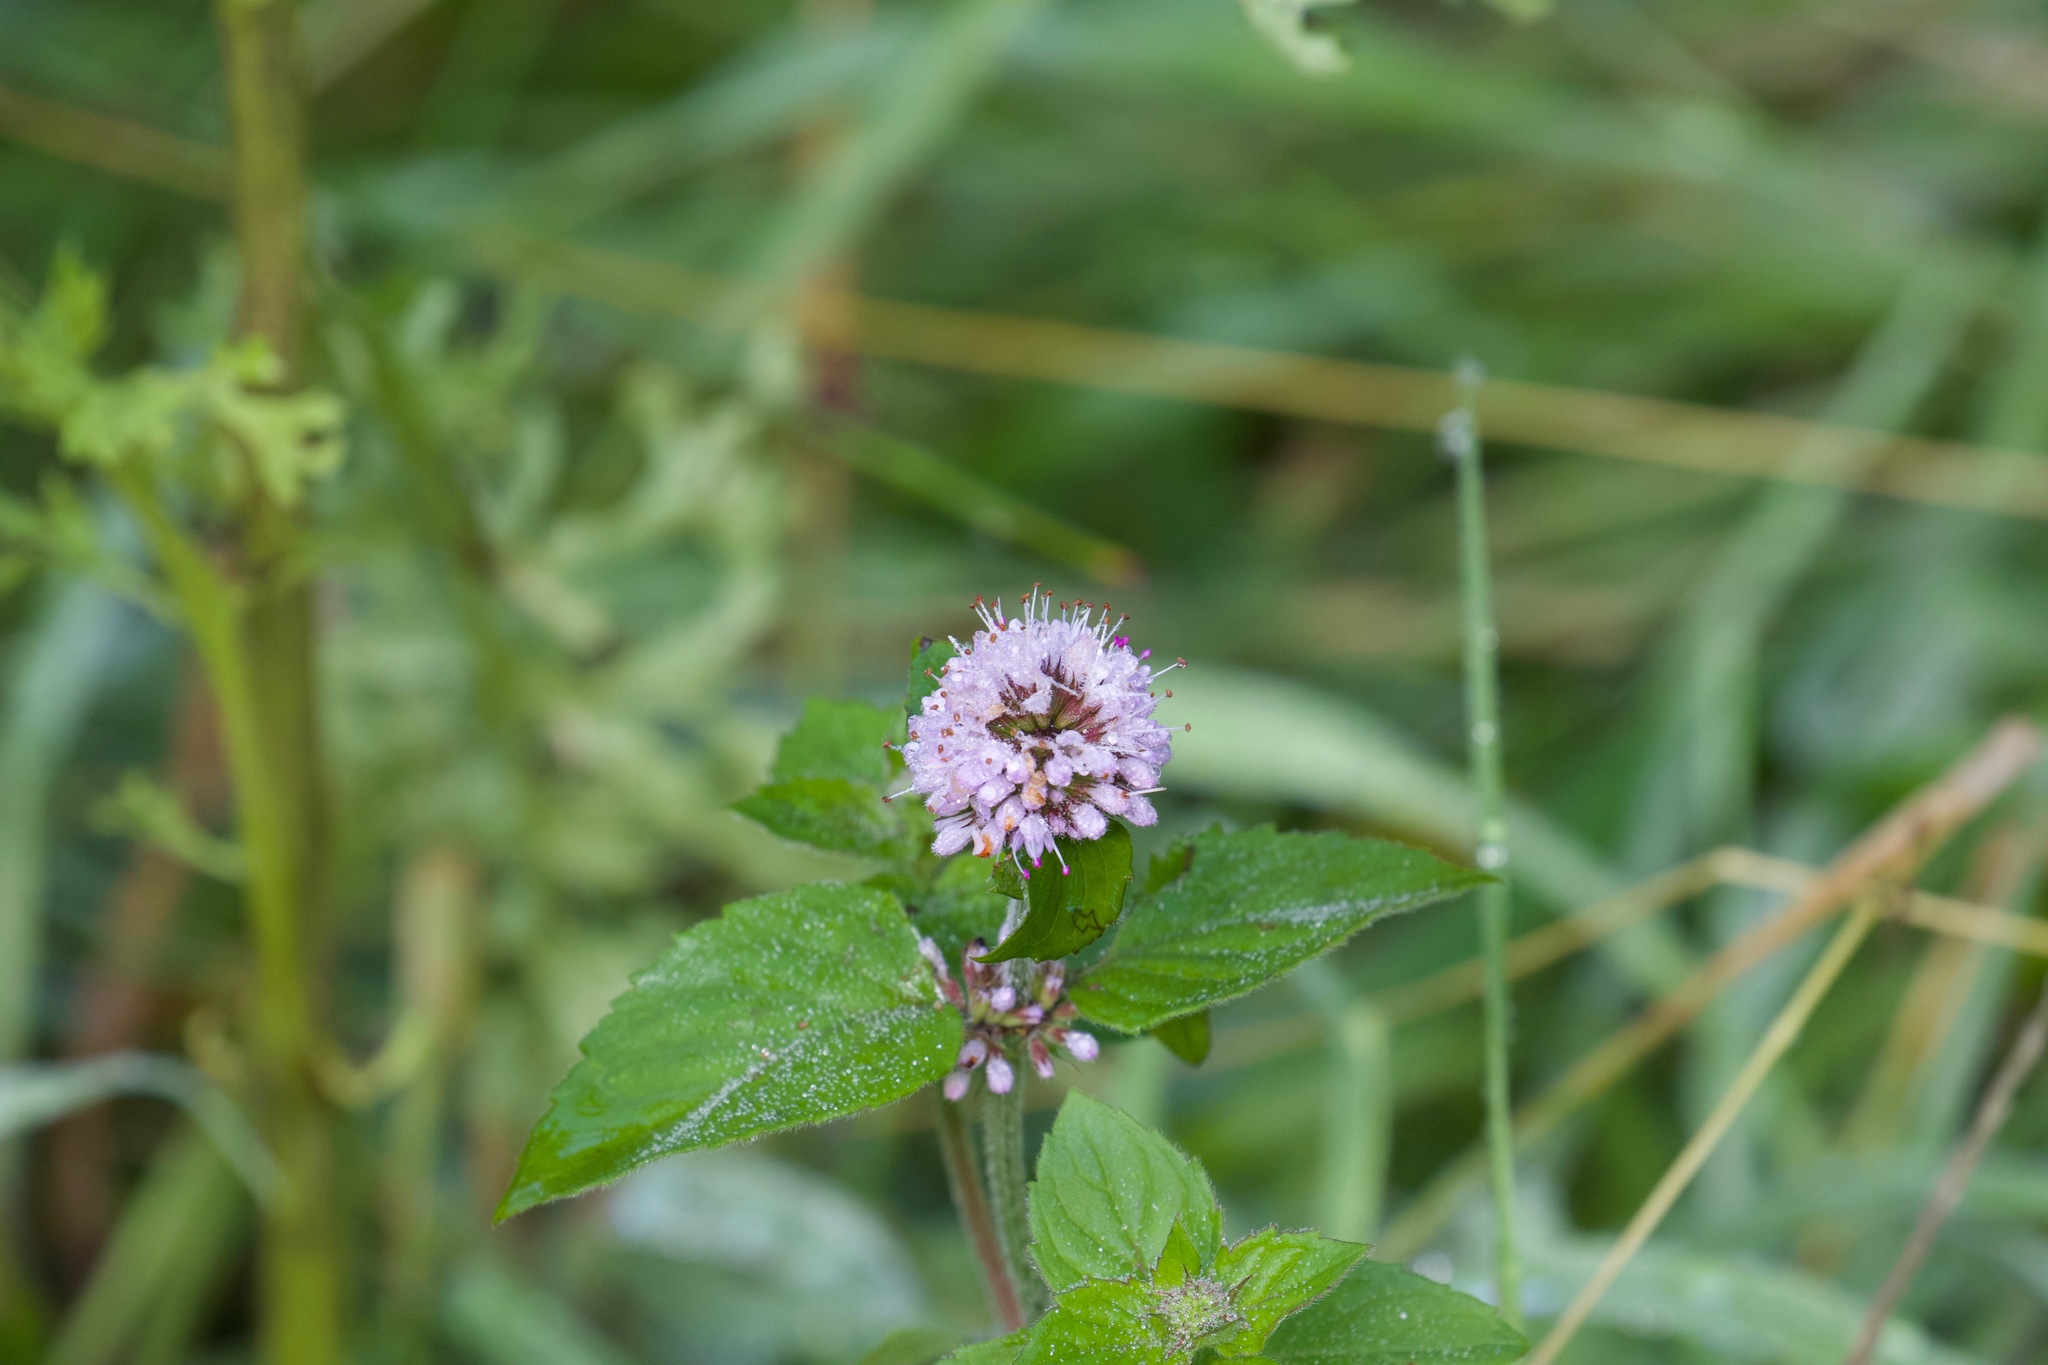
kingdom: Plantae
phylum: Tracheophyta
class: Magnoliopsida
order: Lamiales
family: Lamiaceae
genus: Mentha
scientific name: Mentha aquatica
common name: Water mint
